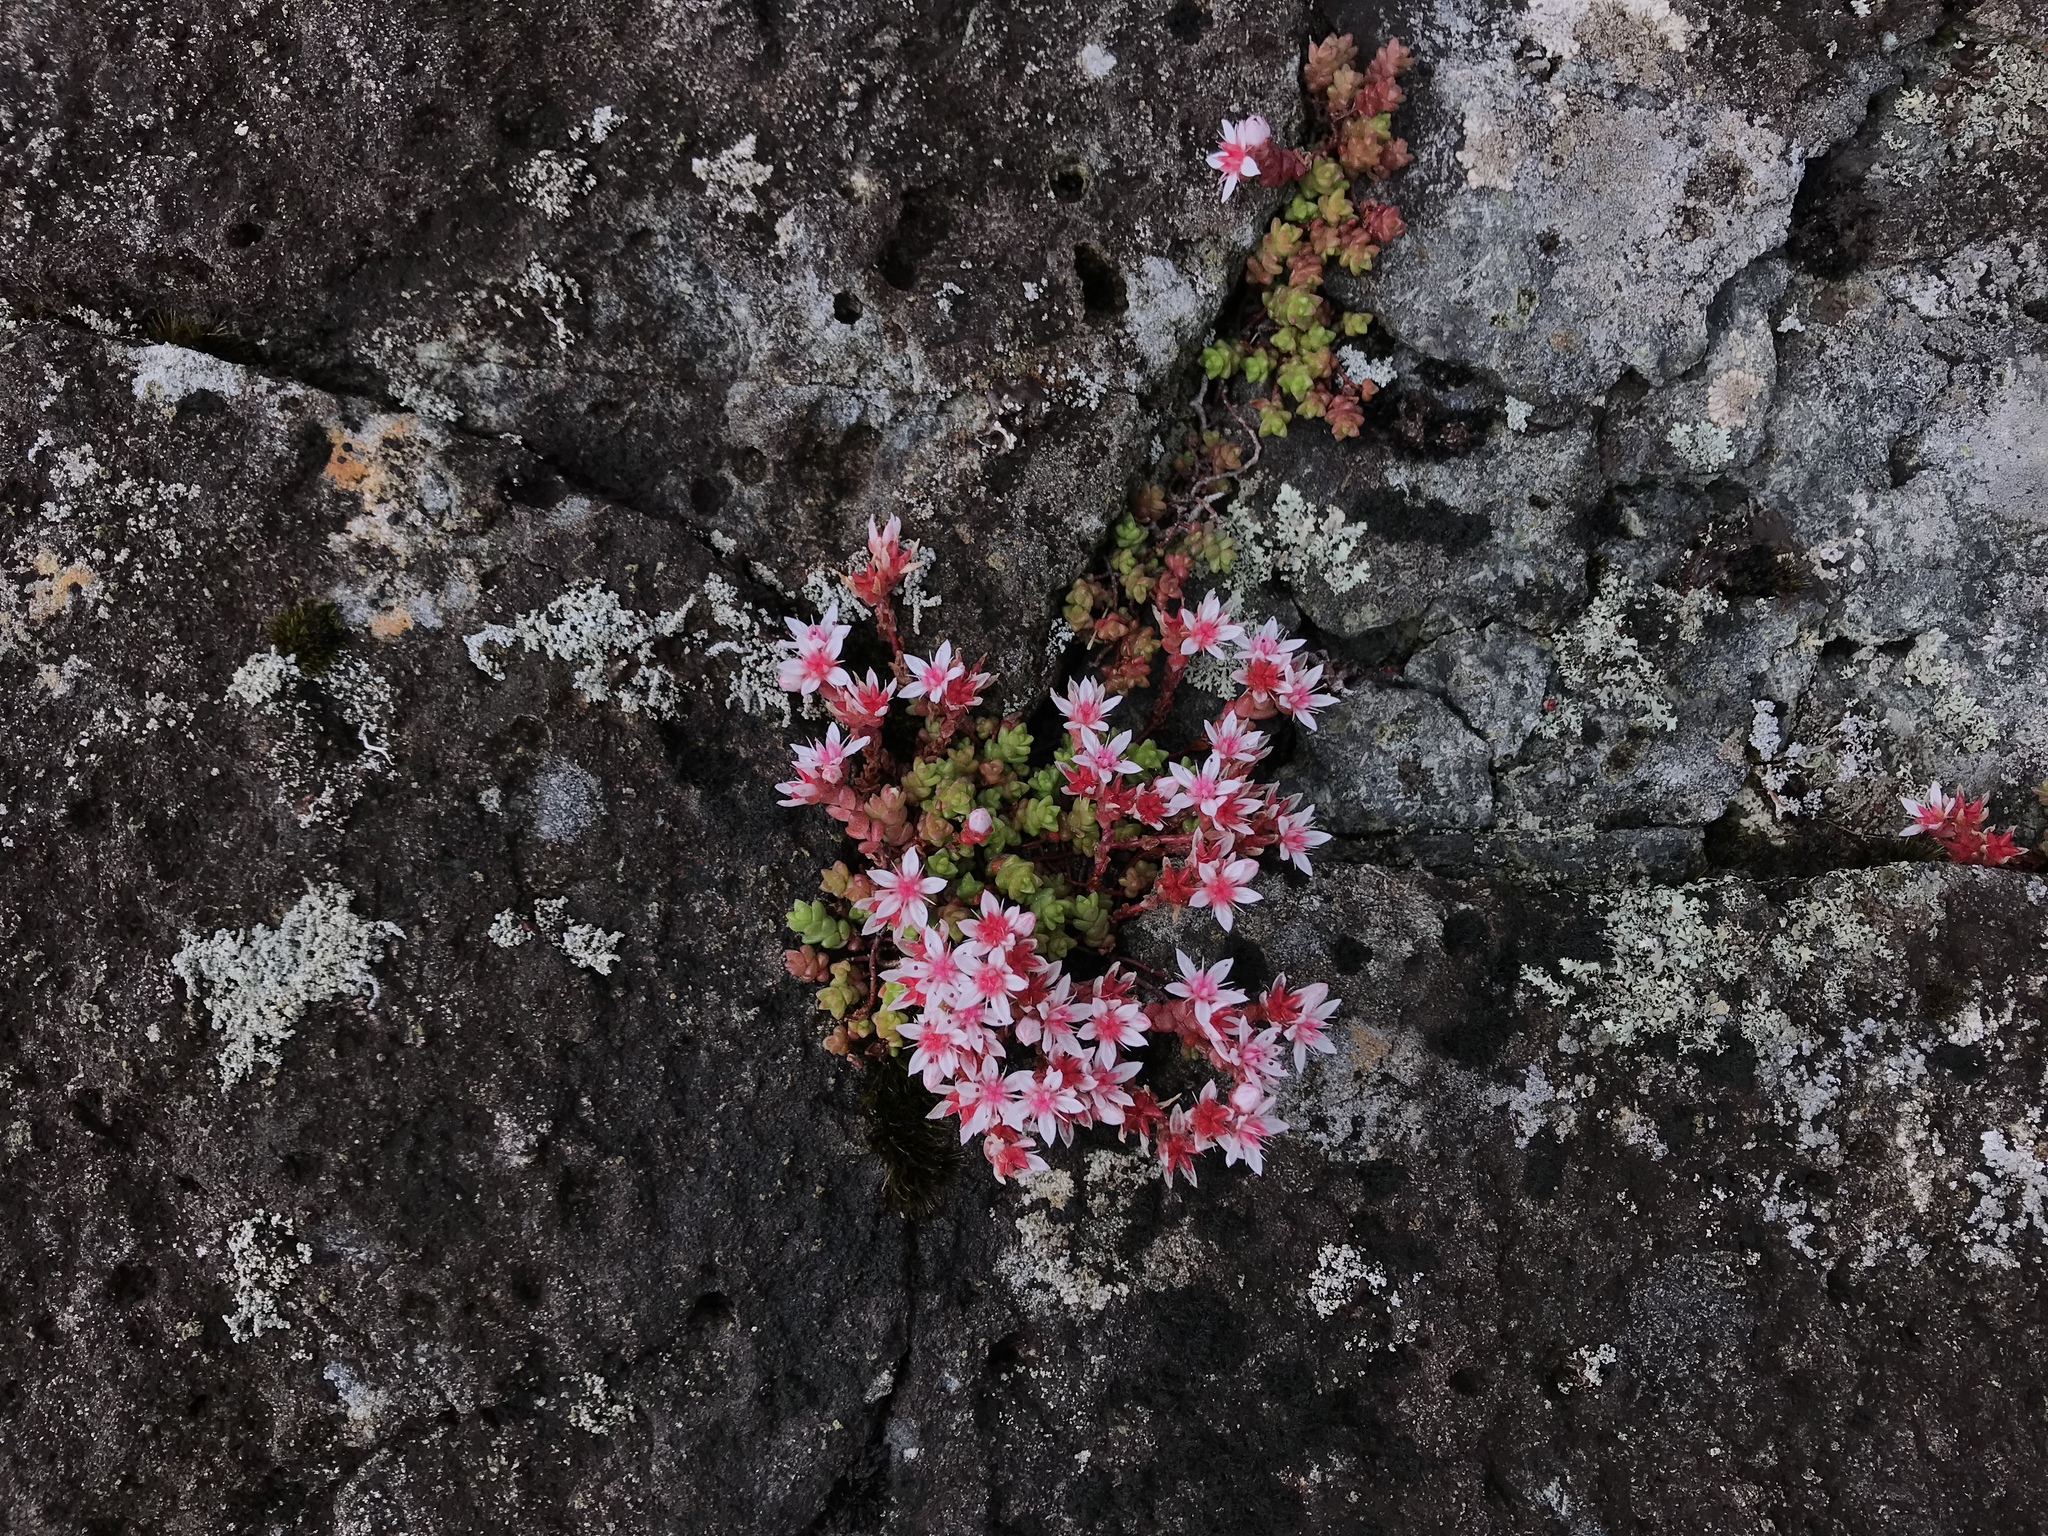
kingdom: Plantae
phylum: Tracheophyta
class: Magnoliopsida
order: Saxifragales
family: Crassulaceae
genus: Sedum
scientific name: Sedum anglicum
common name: English stonecrop
